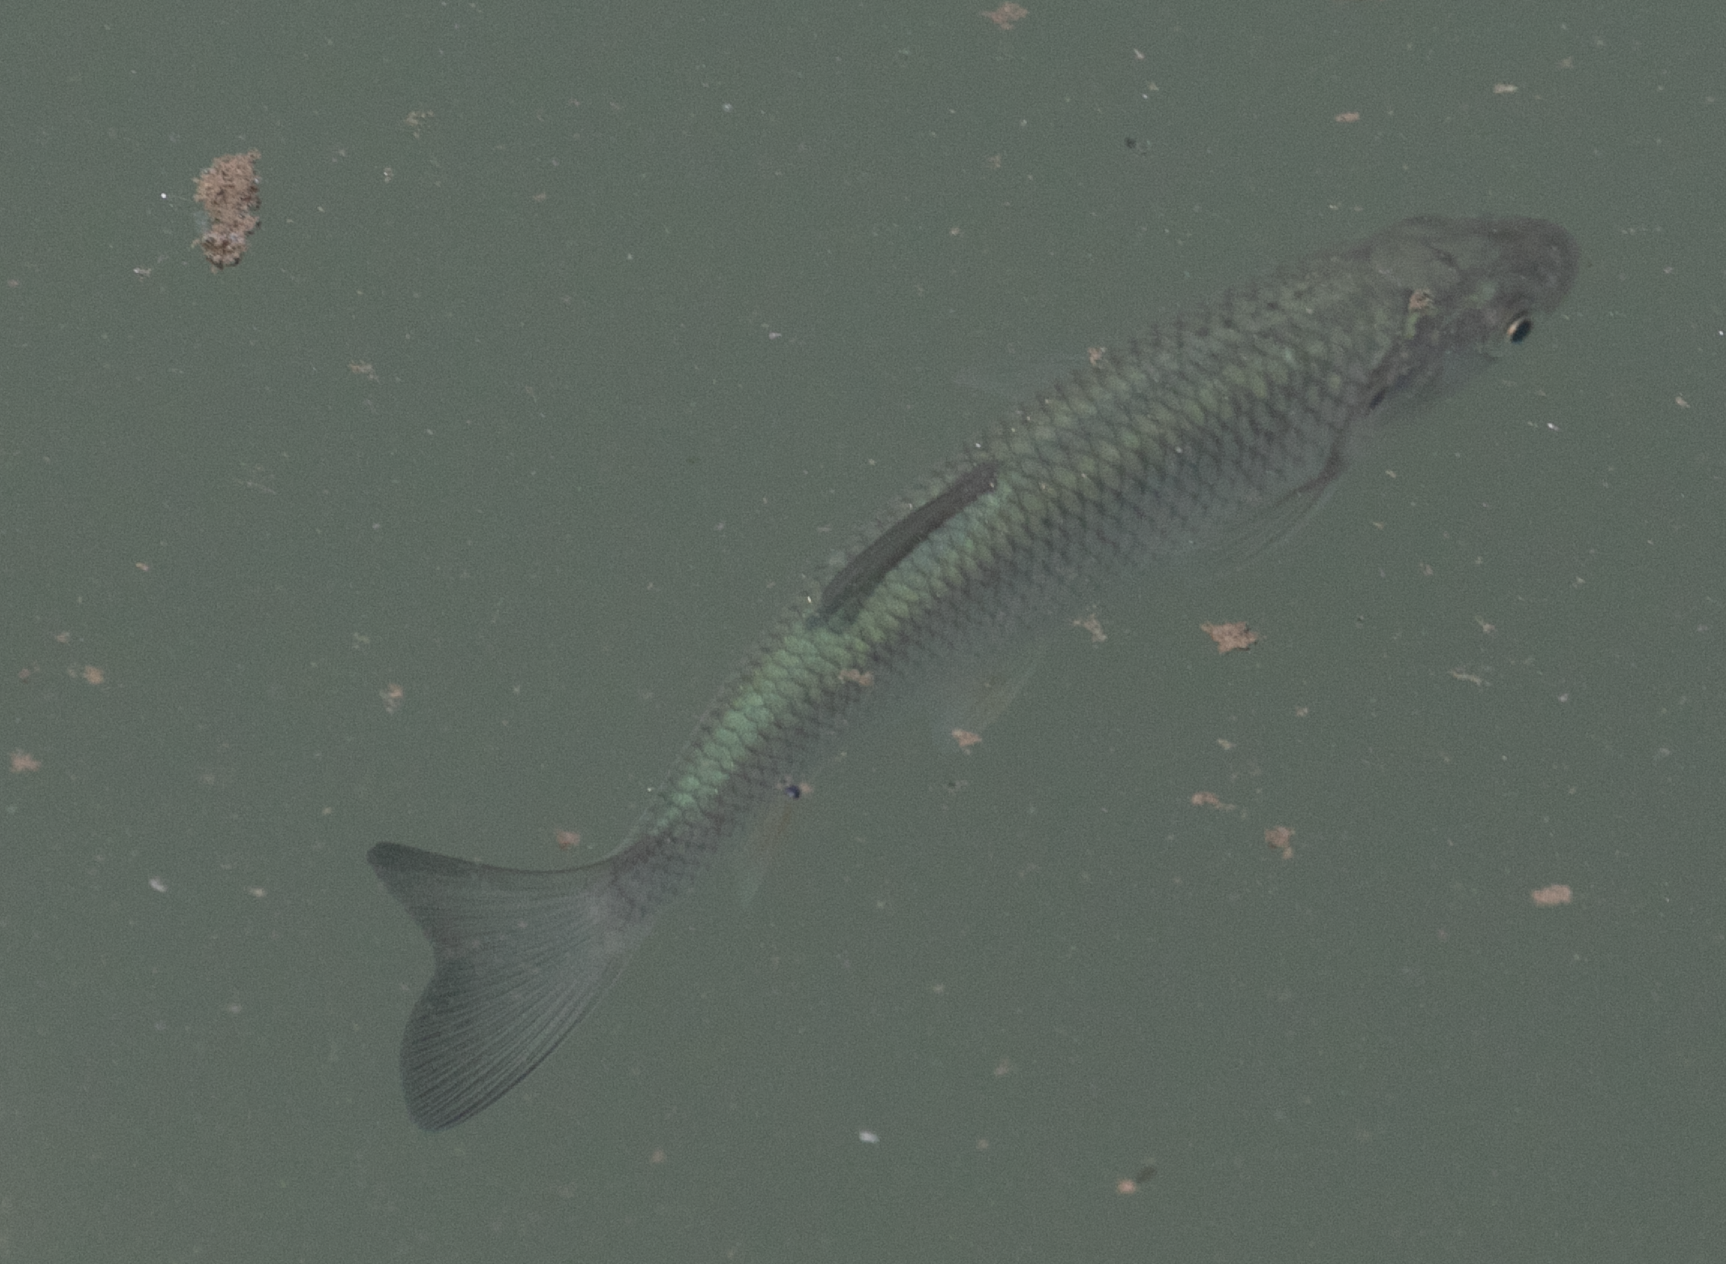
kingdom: Animalia
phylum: Chordata
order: Cypriniformes
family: Cyprinidae
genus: Squalius
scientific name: Squalius squalus
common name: Italian chub
